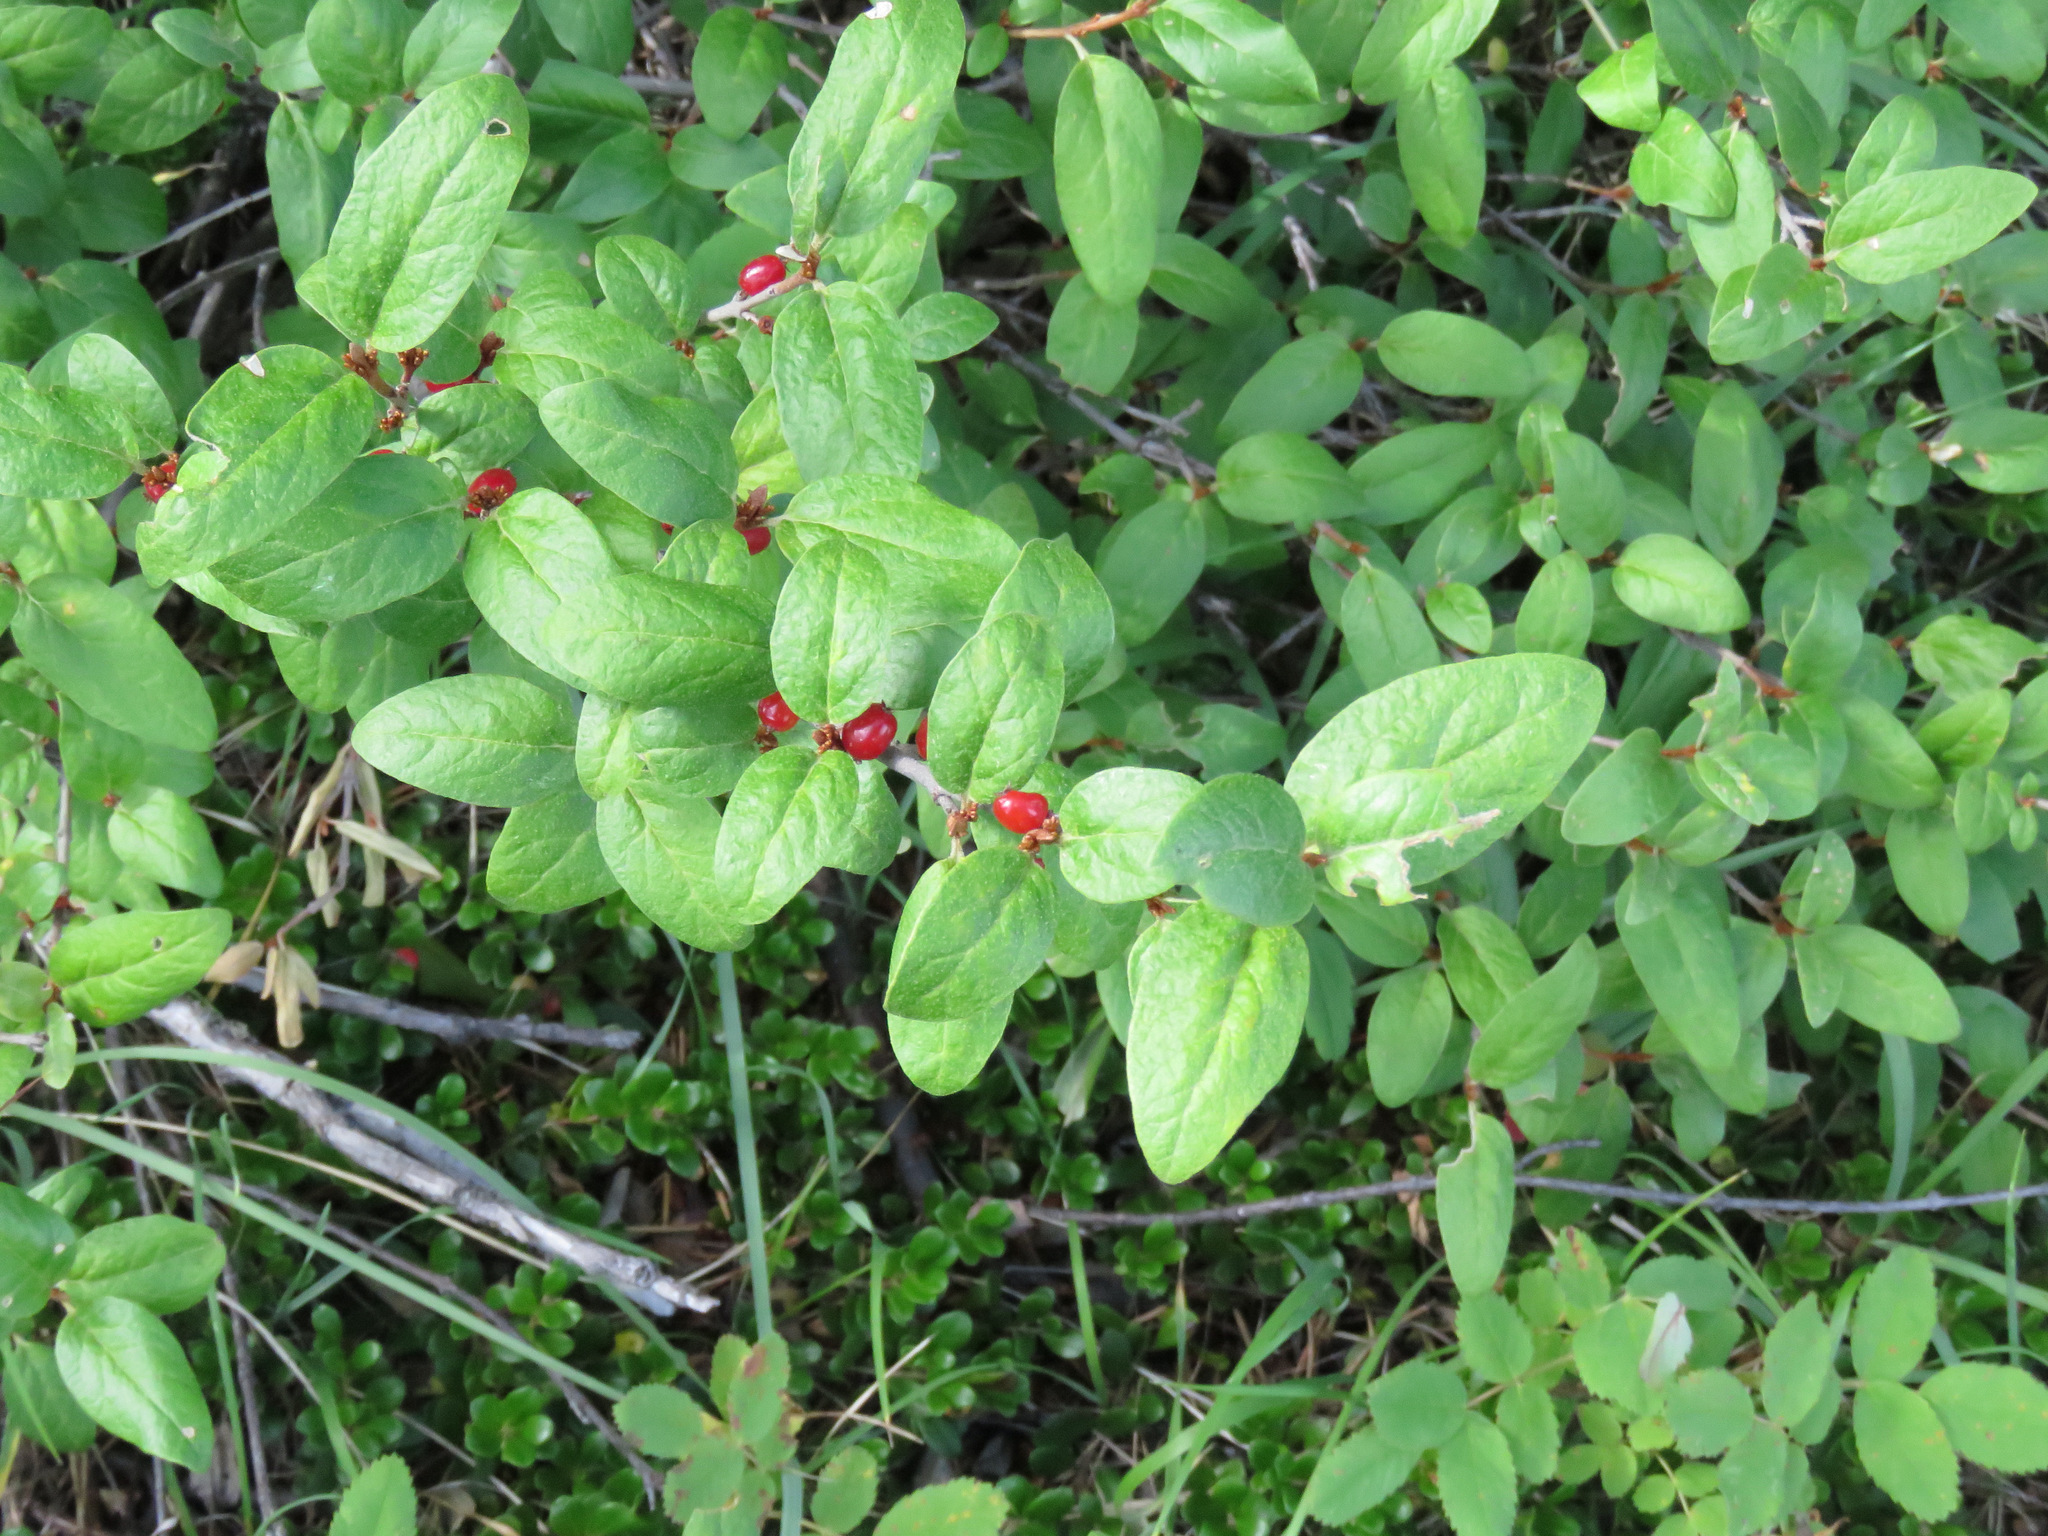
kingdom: Plantae
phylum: Tracheophyta
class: Magnoliopsida
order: Rosales
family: Elaeagnaceae
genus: Shepherdia
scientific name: Shepherdia canadensis
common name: Soapberry
